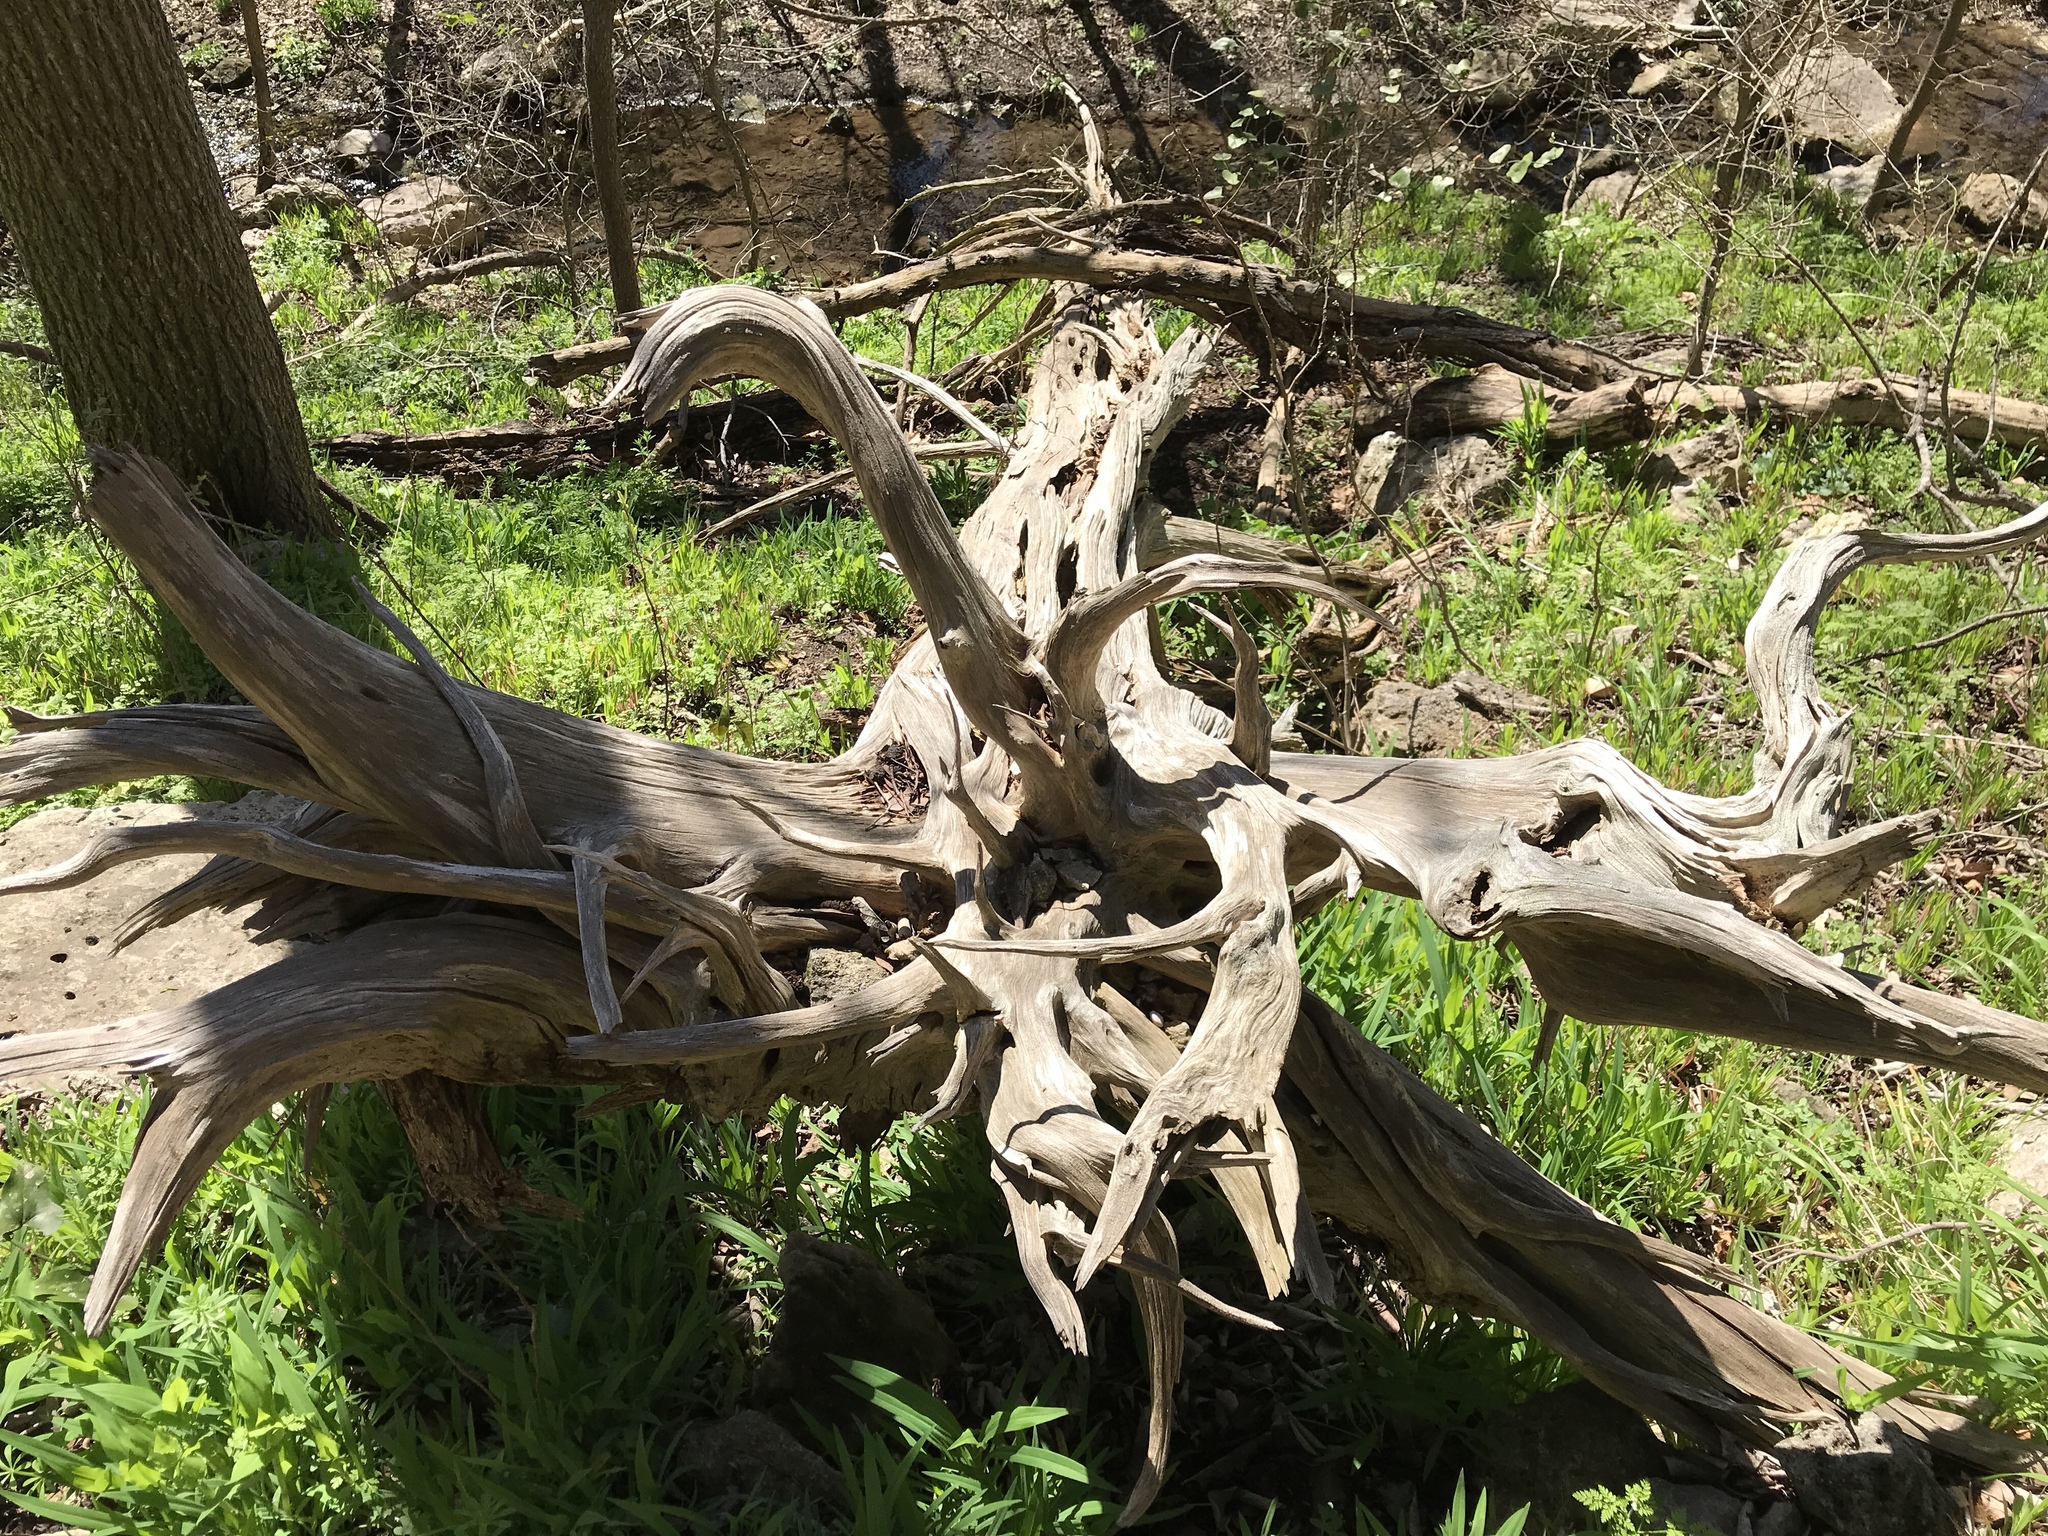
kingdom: Plantae
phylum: Tracheophyta
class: Pinopsida
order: Pinales
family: Cupressaceae
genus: Juniperus
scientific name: Juniperus ashei
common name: Mexican juniper
